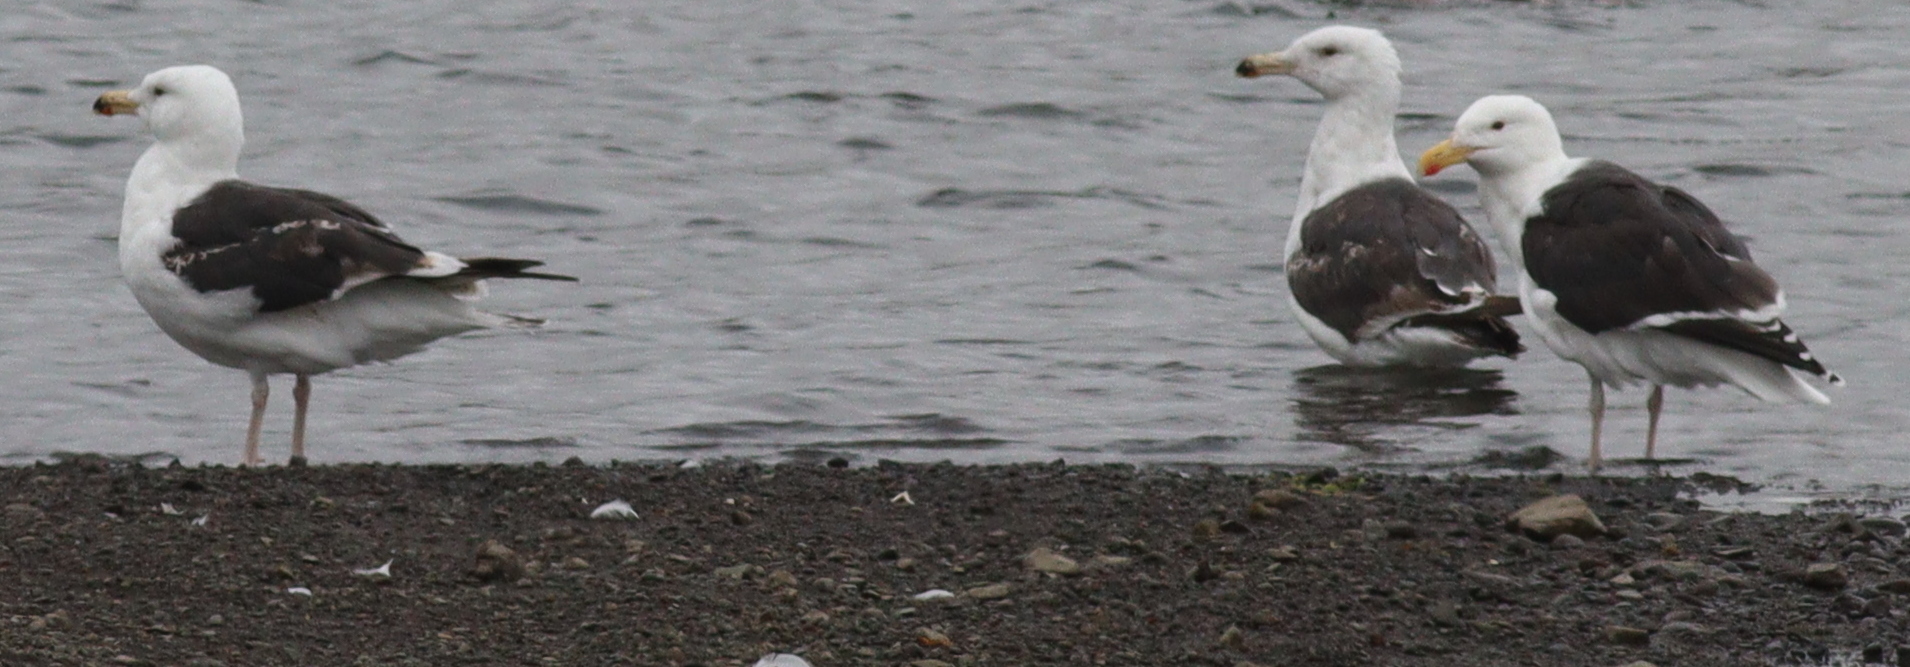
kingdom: Animalia
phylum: Chordata
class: Aves
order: Charadriiformes
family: Laridae
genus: Larus
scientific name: Larus marinus
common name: Great black-backed gull
